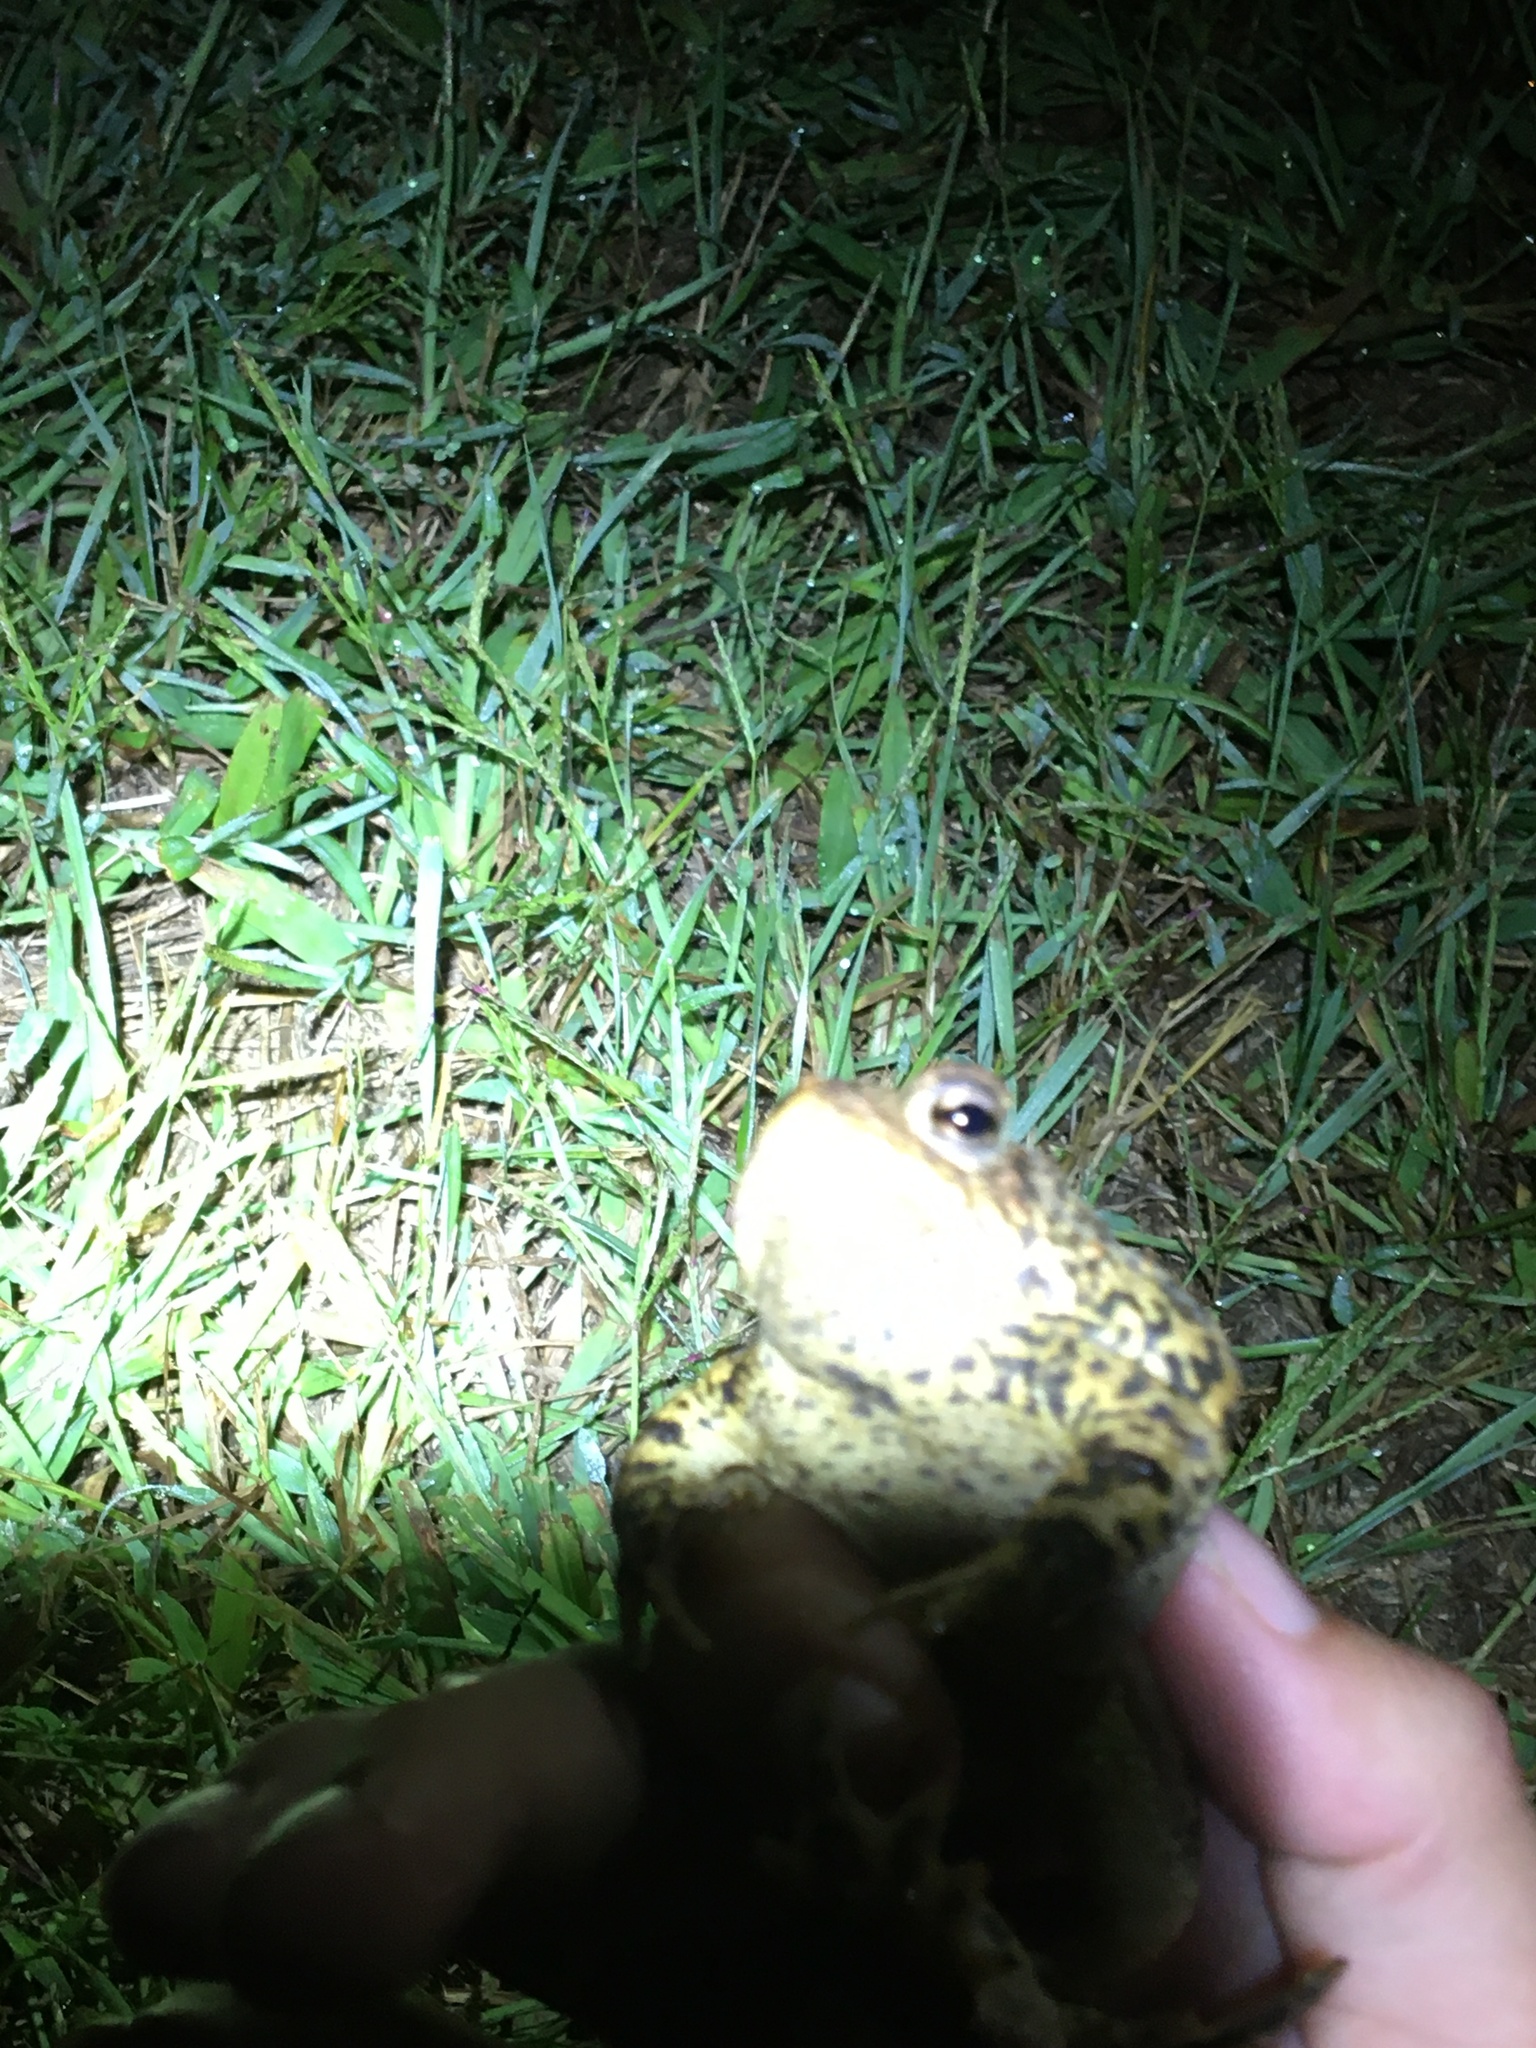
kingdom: Animalia
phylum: Chordata
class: Amphibia
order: Anura
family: Bufonidae
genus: Anaxyrus
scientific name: Anaxyrus americanus
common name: American toad
